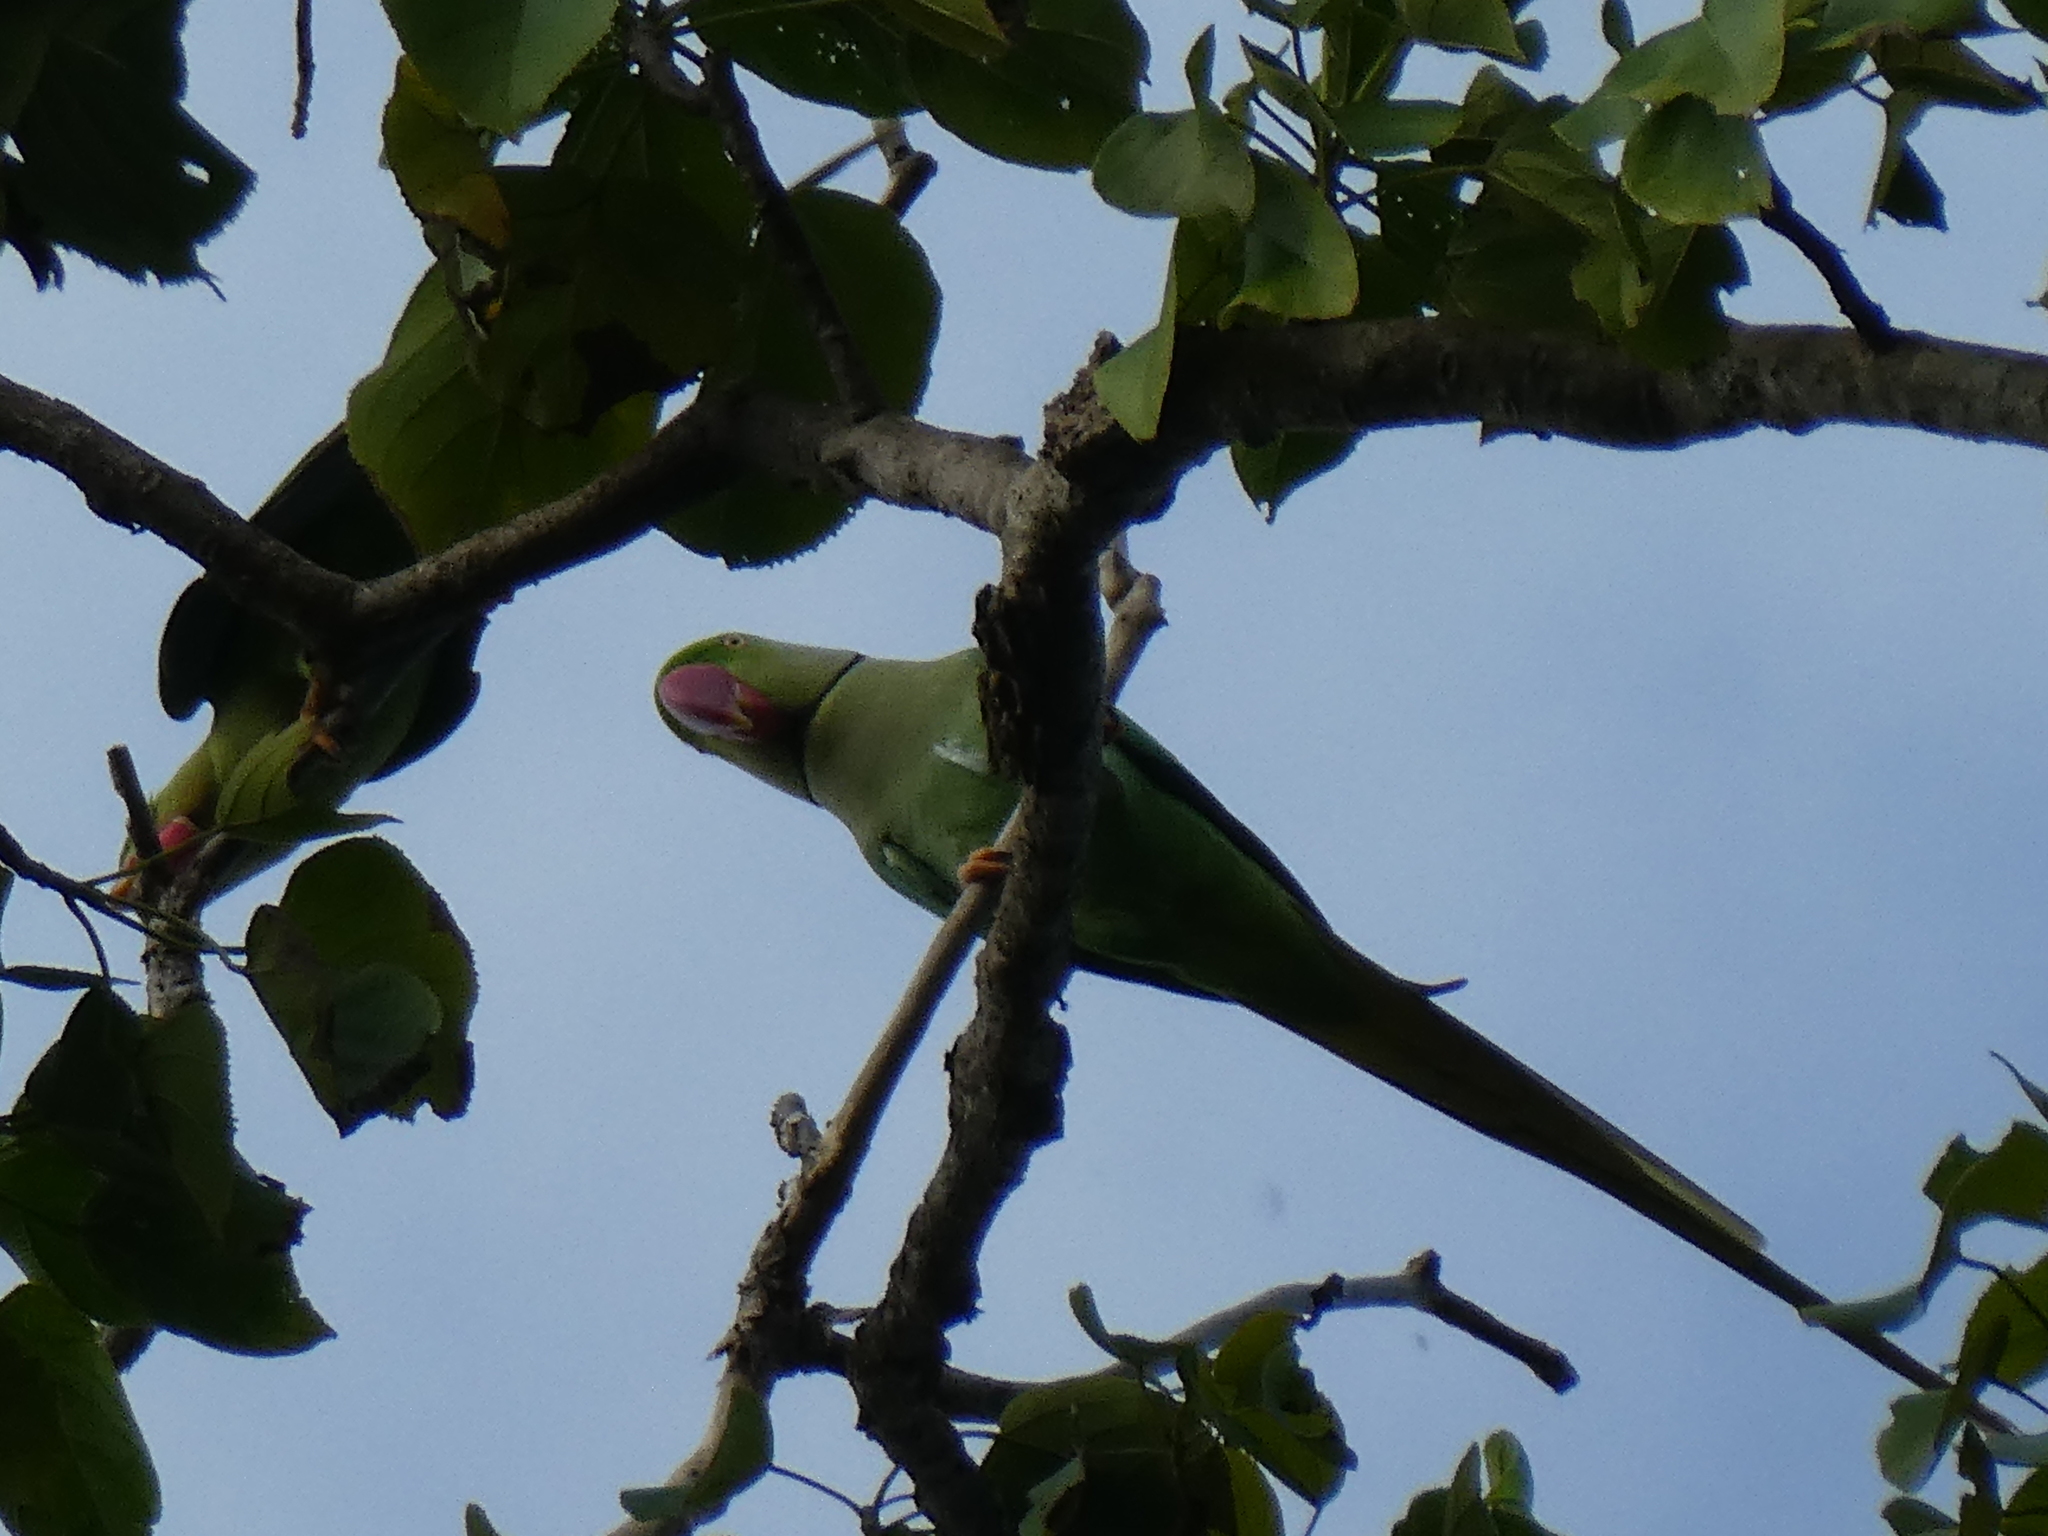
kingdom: Animalia
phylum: Chordata
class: Aves
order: Psittaciformes
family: Psittacidae
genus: Psittacula
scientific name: Psittacula eupatria
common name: Alexandrine parakeet
